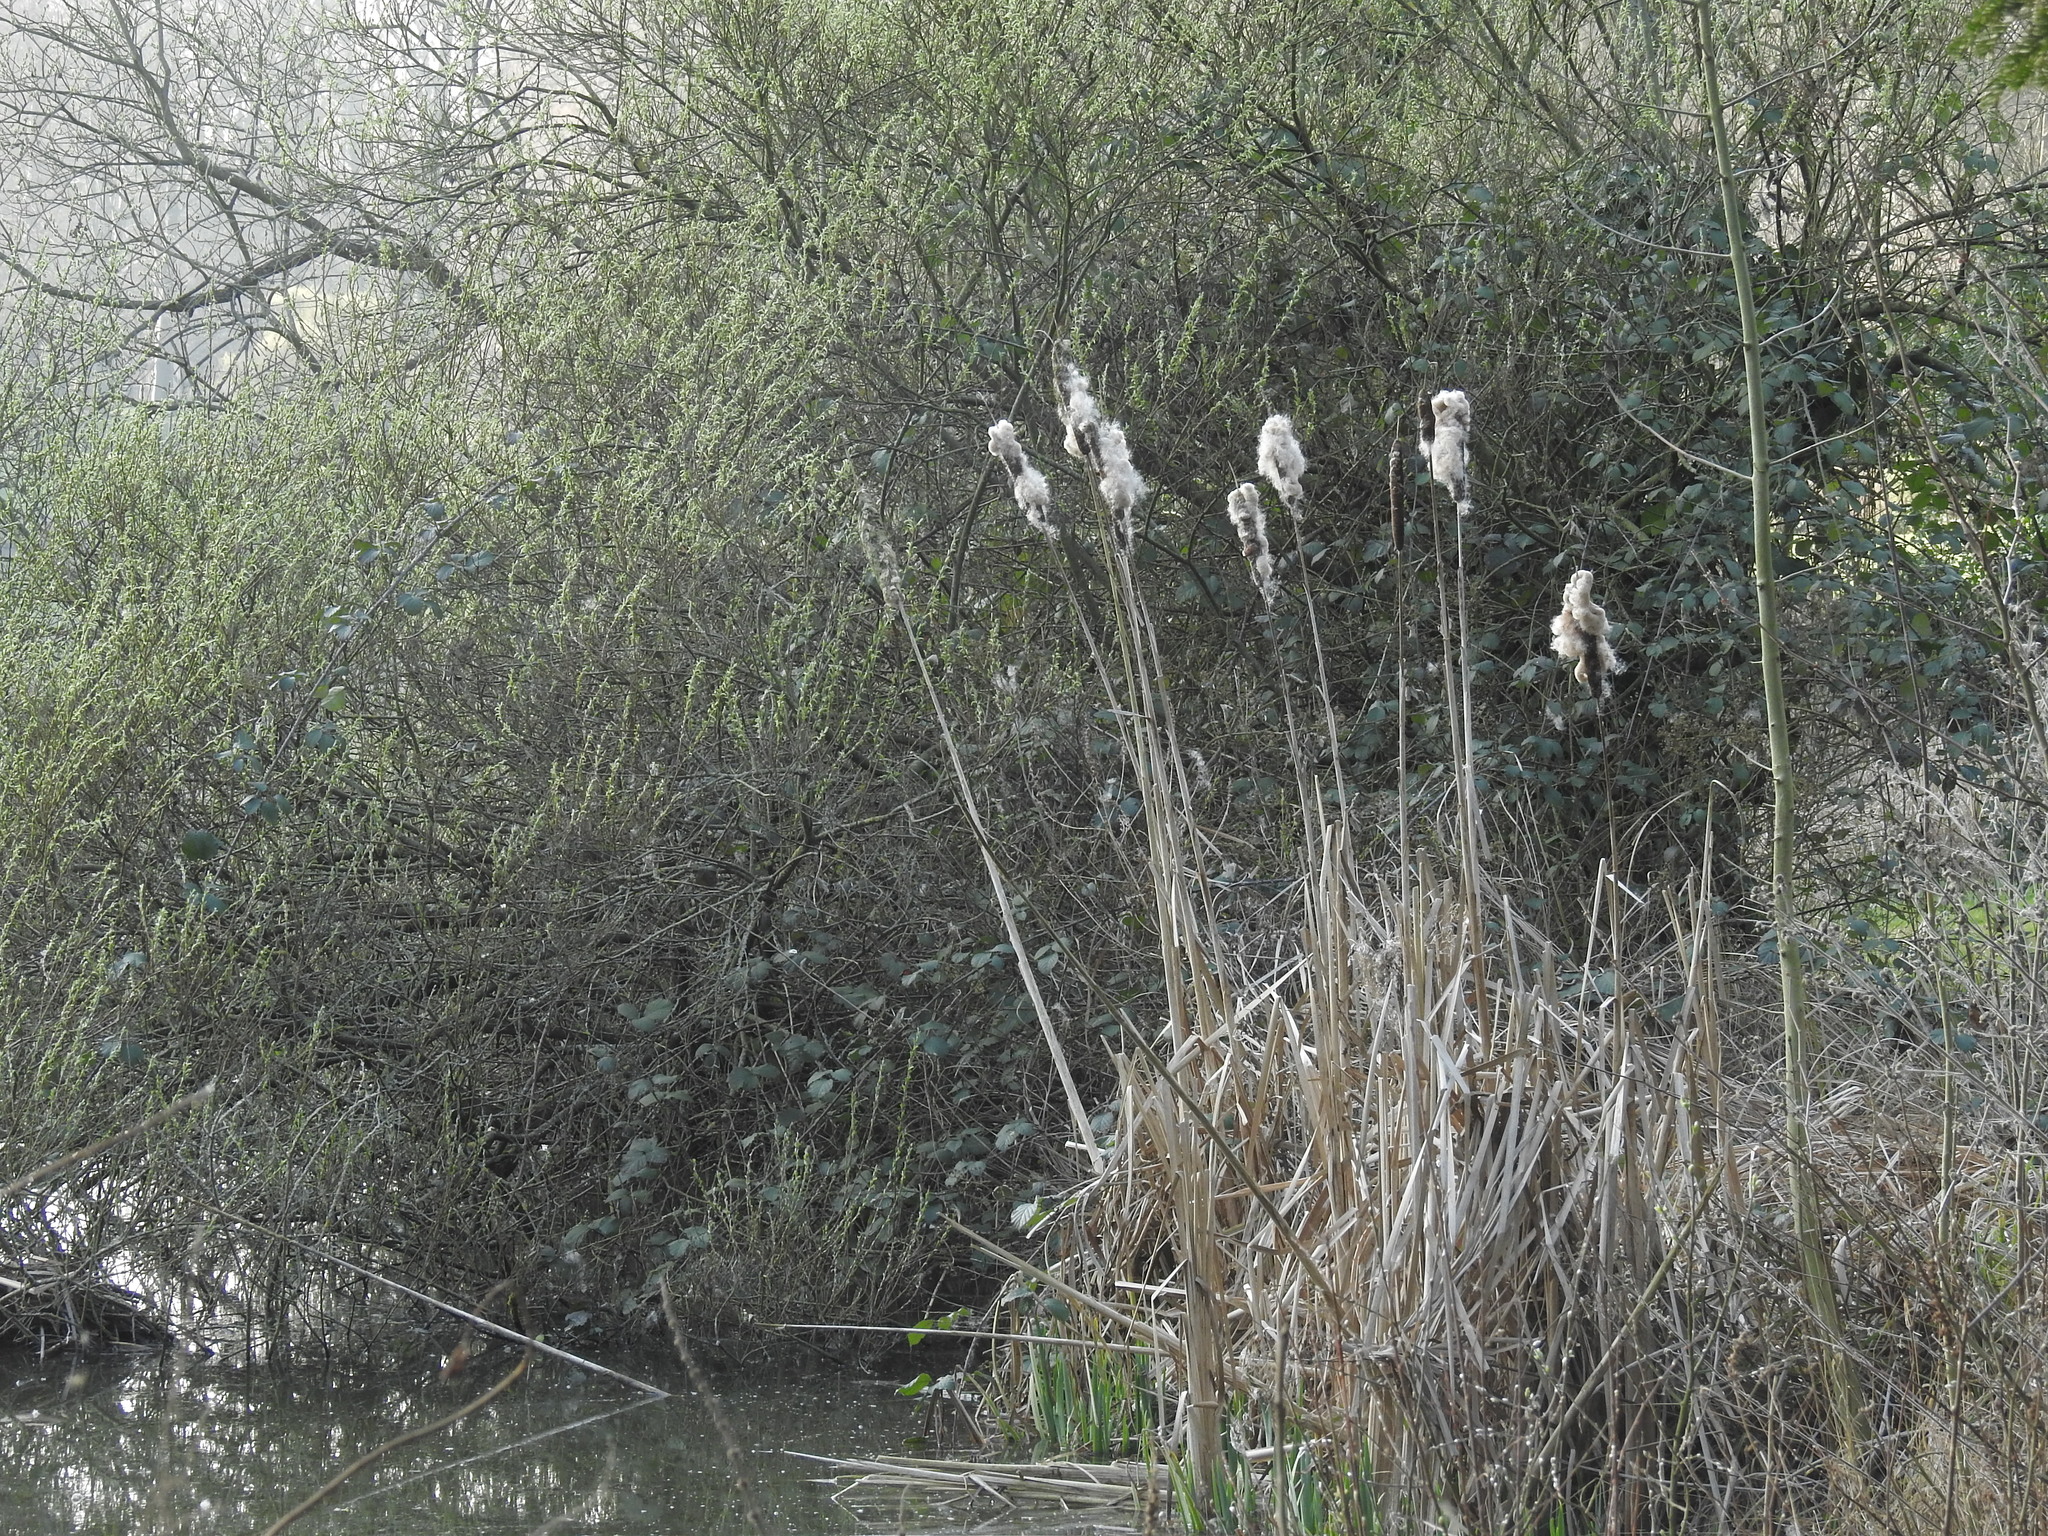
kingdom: Plantae
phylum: Tracheophyta
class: Liliopsida
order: Poales
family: Typhaceae
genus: Typha
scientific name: Typha latifolia
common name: Broadleaf cattail
